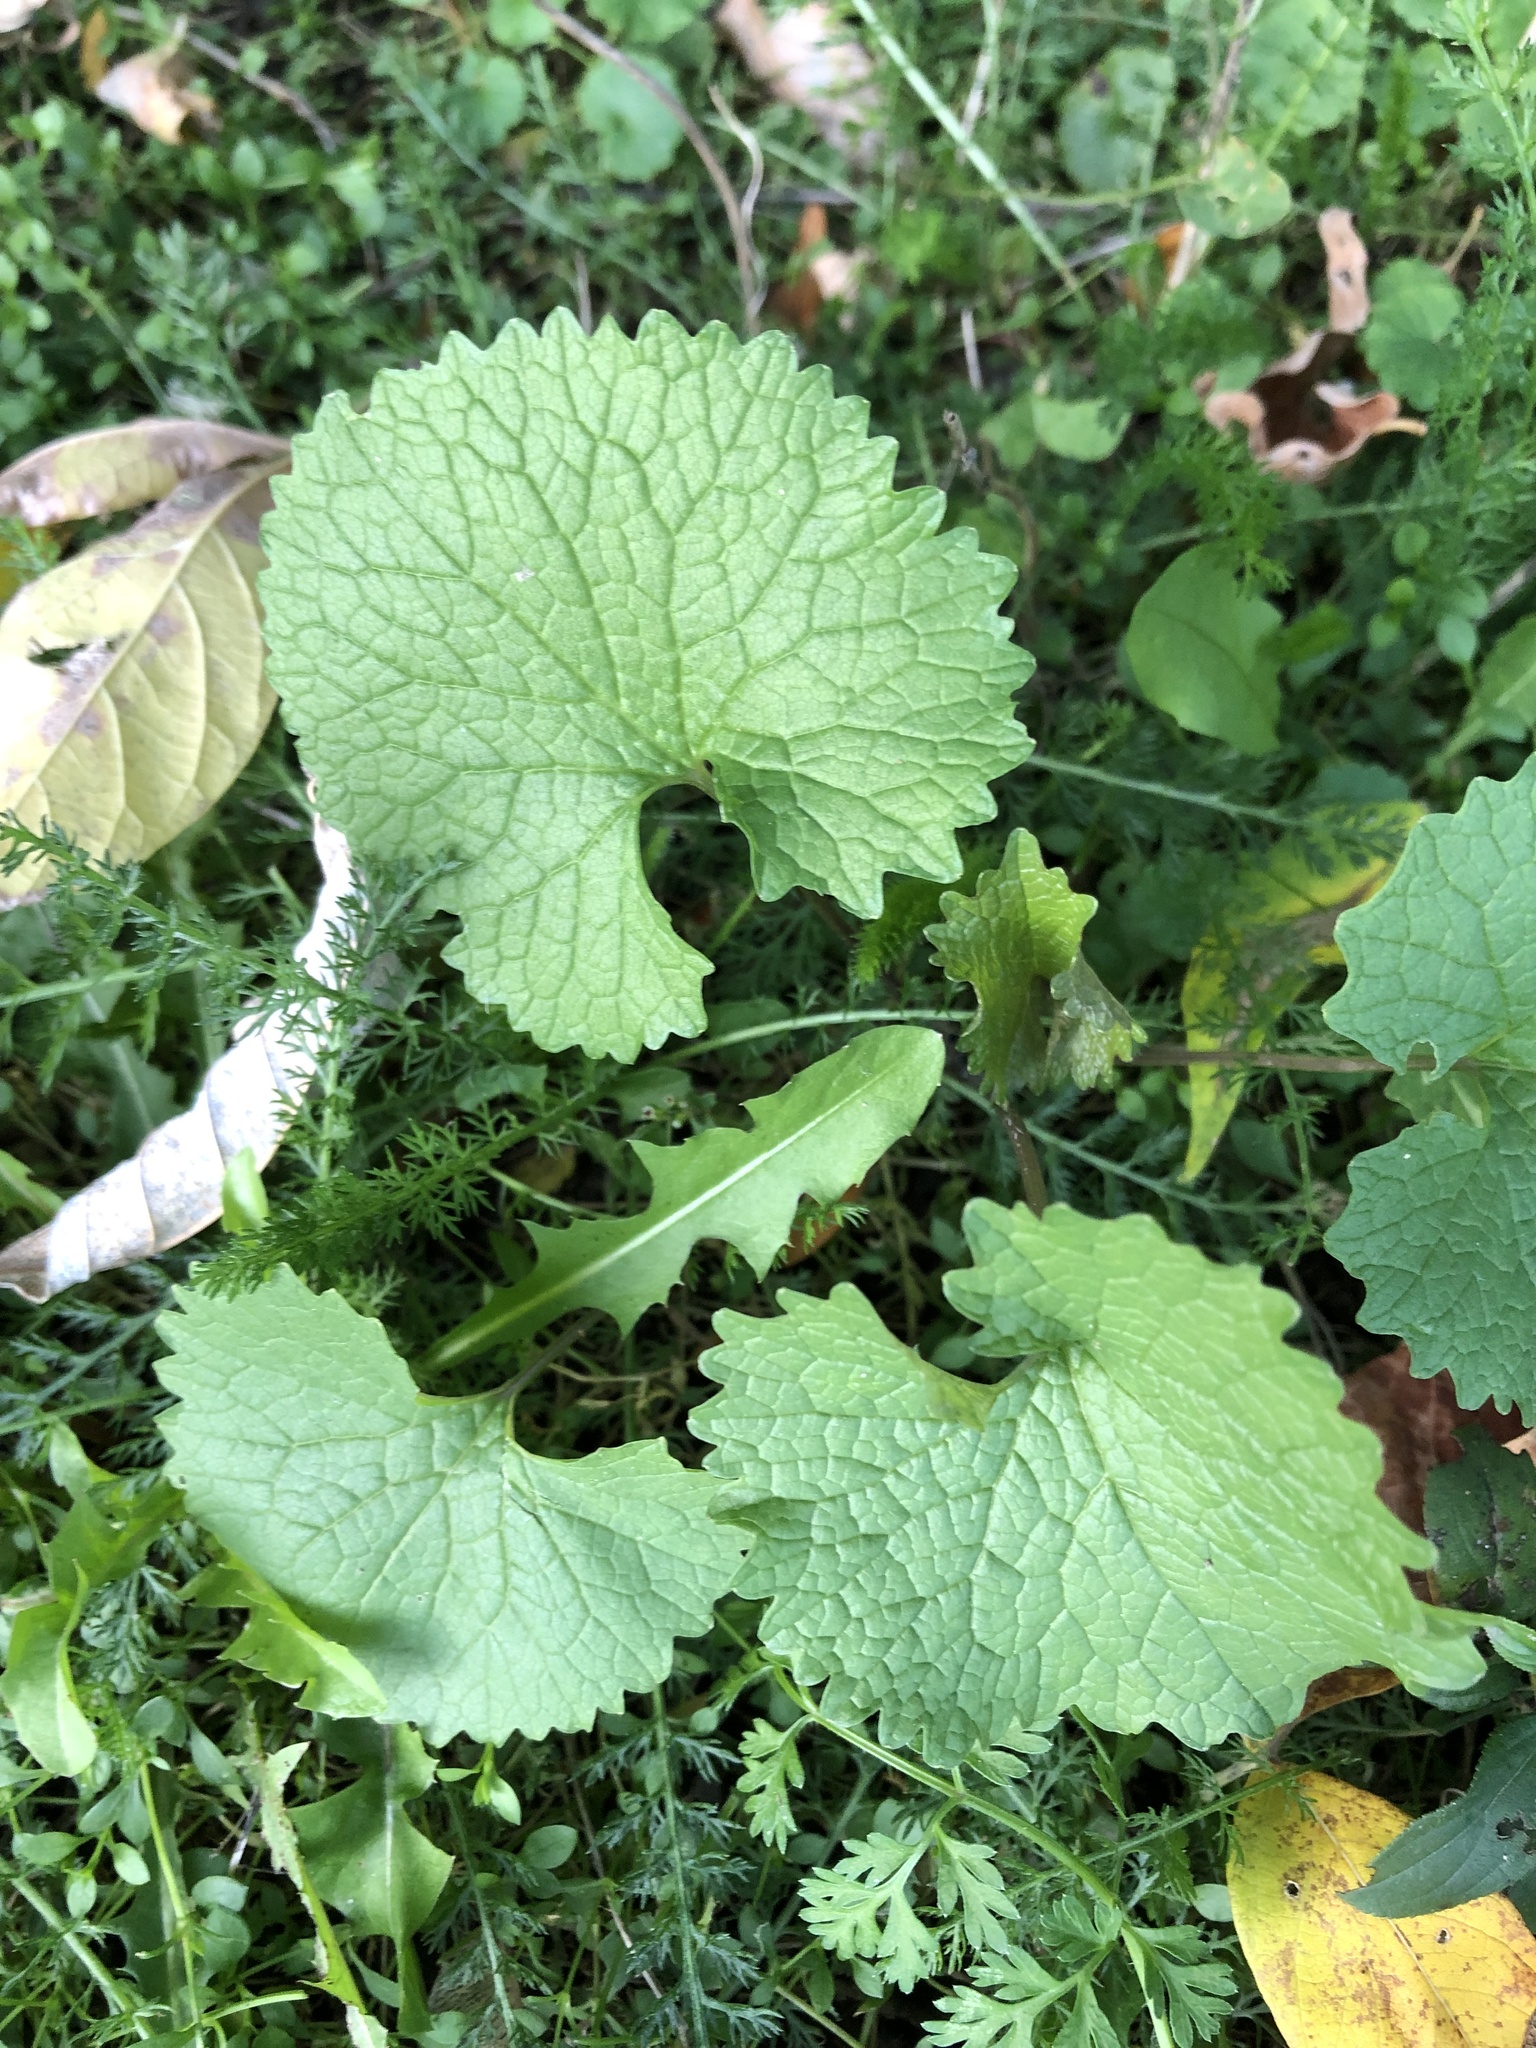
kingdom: Plantae
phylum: Tracheophyta
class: Magnoliopsida
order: Brassicales
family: Brassicaceae
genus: Alliaria
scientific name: Alliaria petiolata
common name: Garlic mustard
